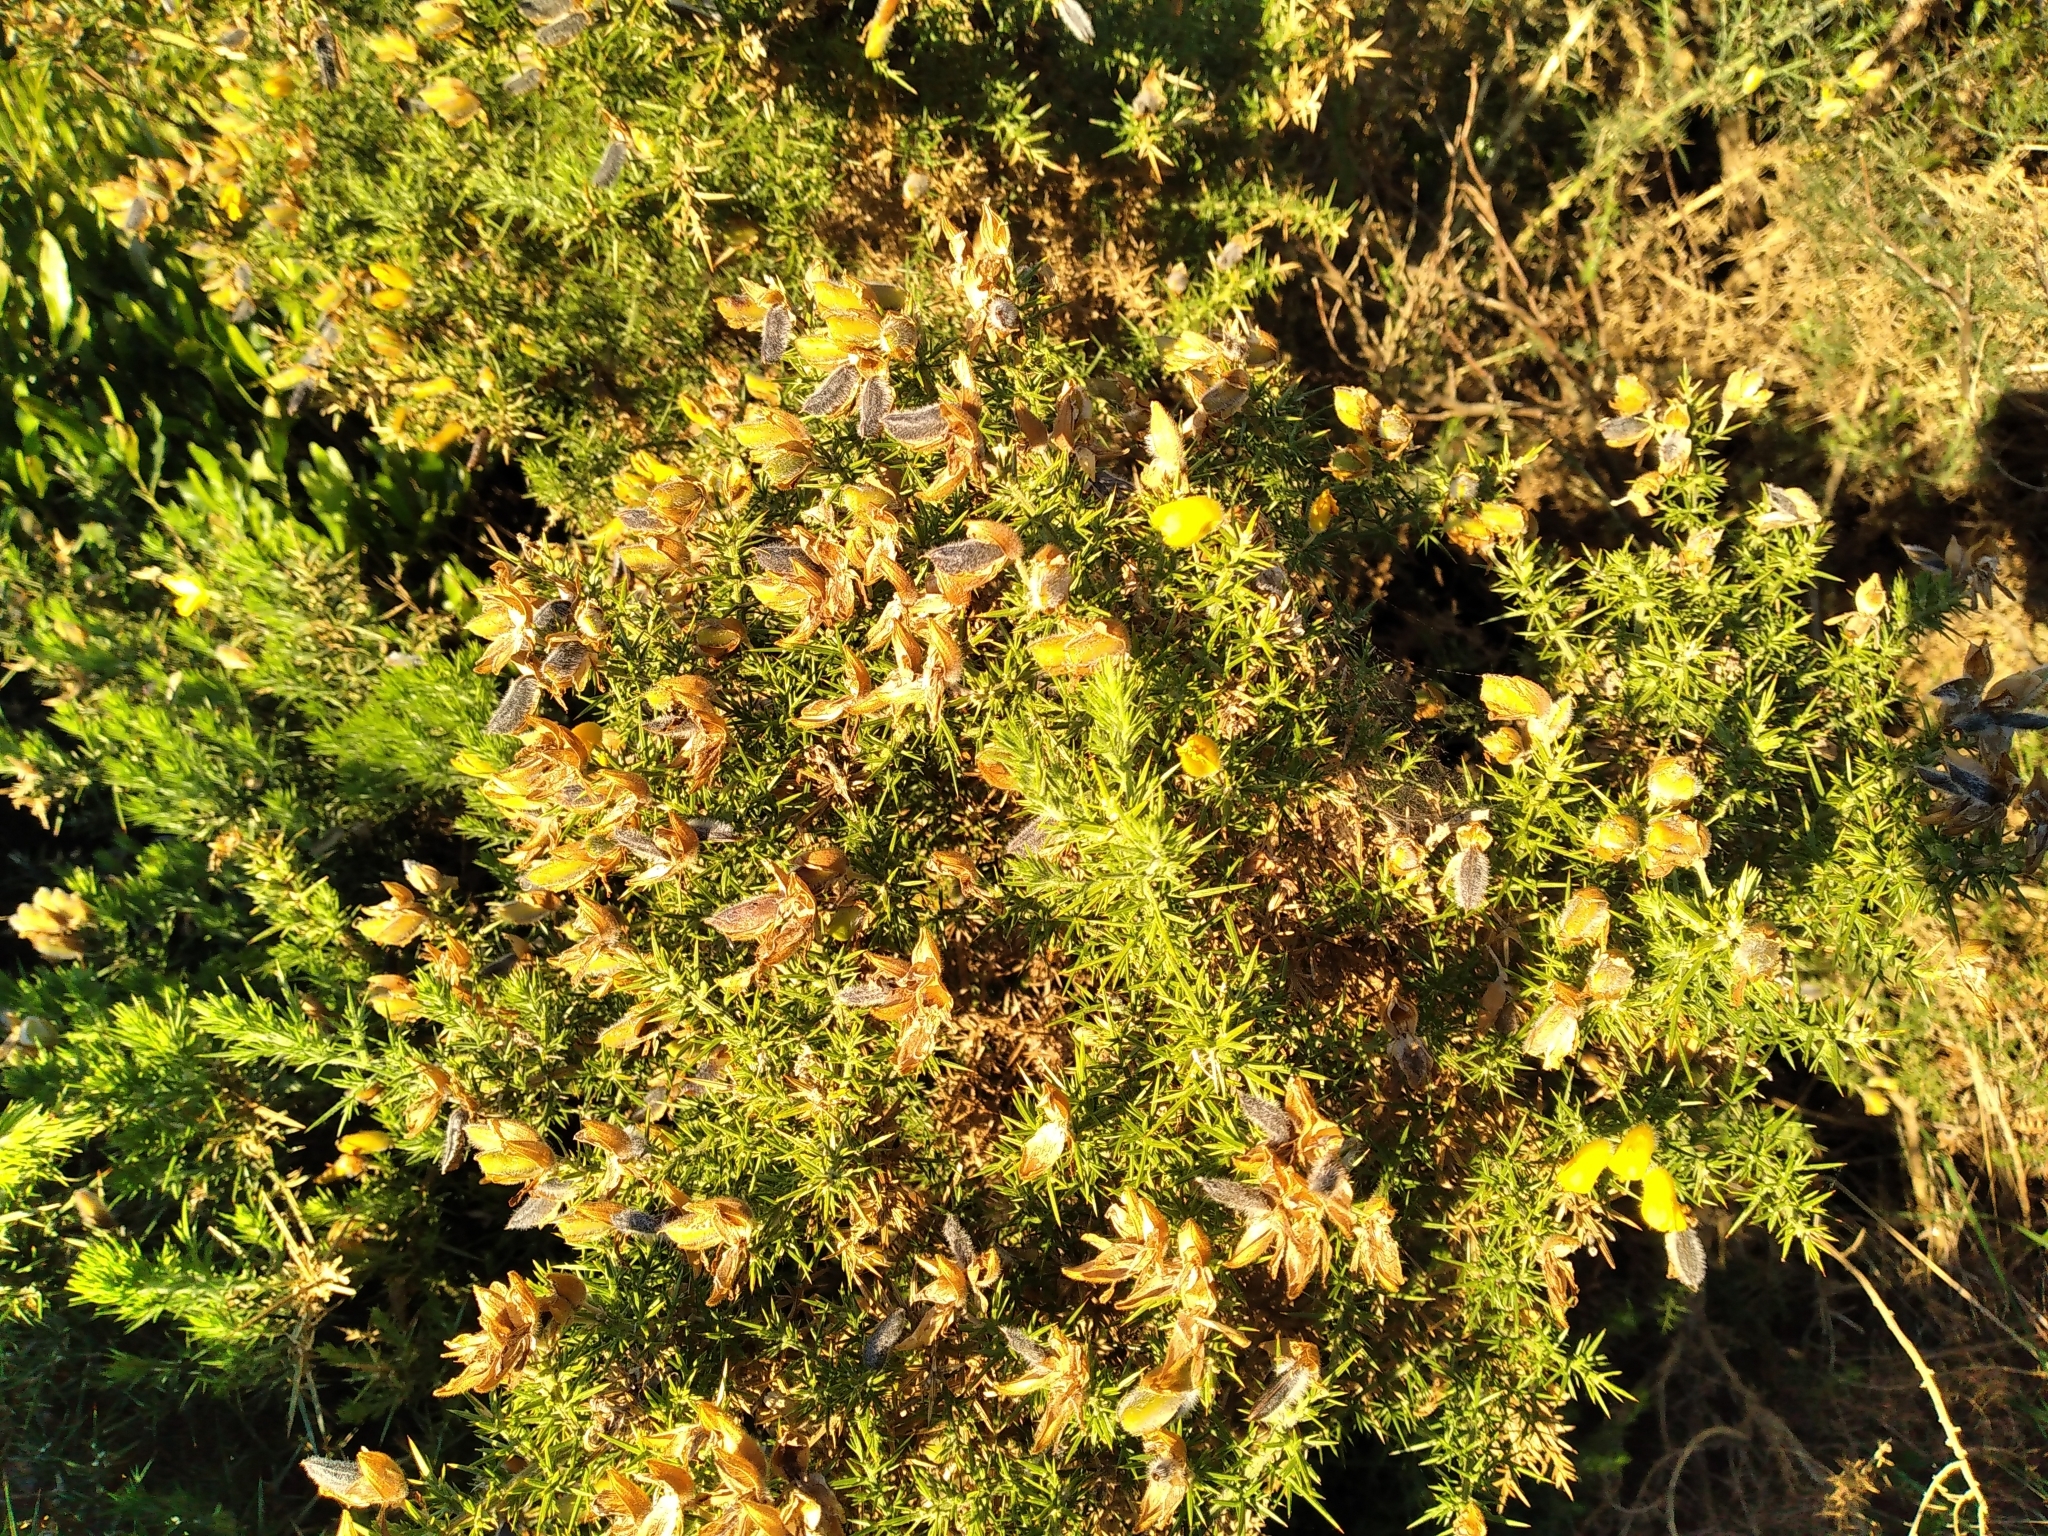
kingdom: Plantae
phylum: Tracheophyta
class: Magnoliopsida
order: Fabales
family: Fabaceae
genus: Ulex
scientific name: Ulex europaeus
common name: Common gorse
